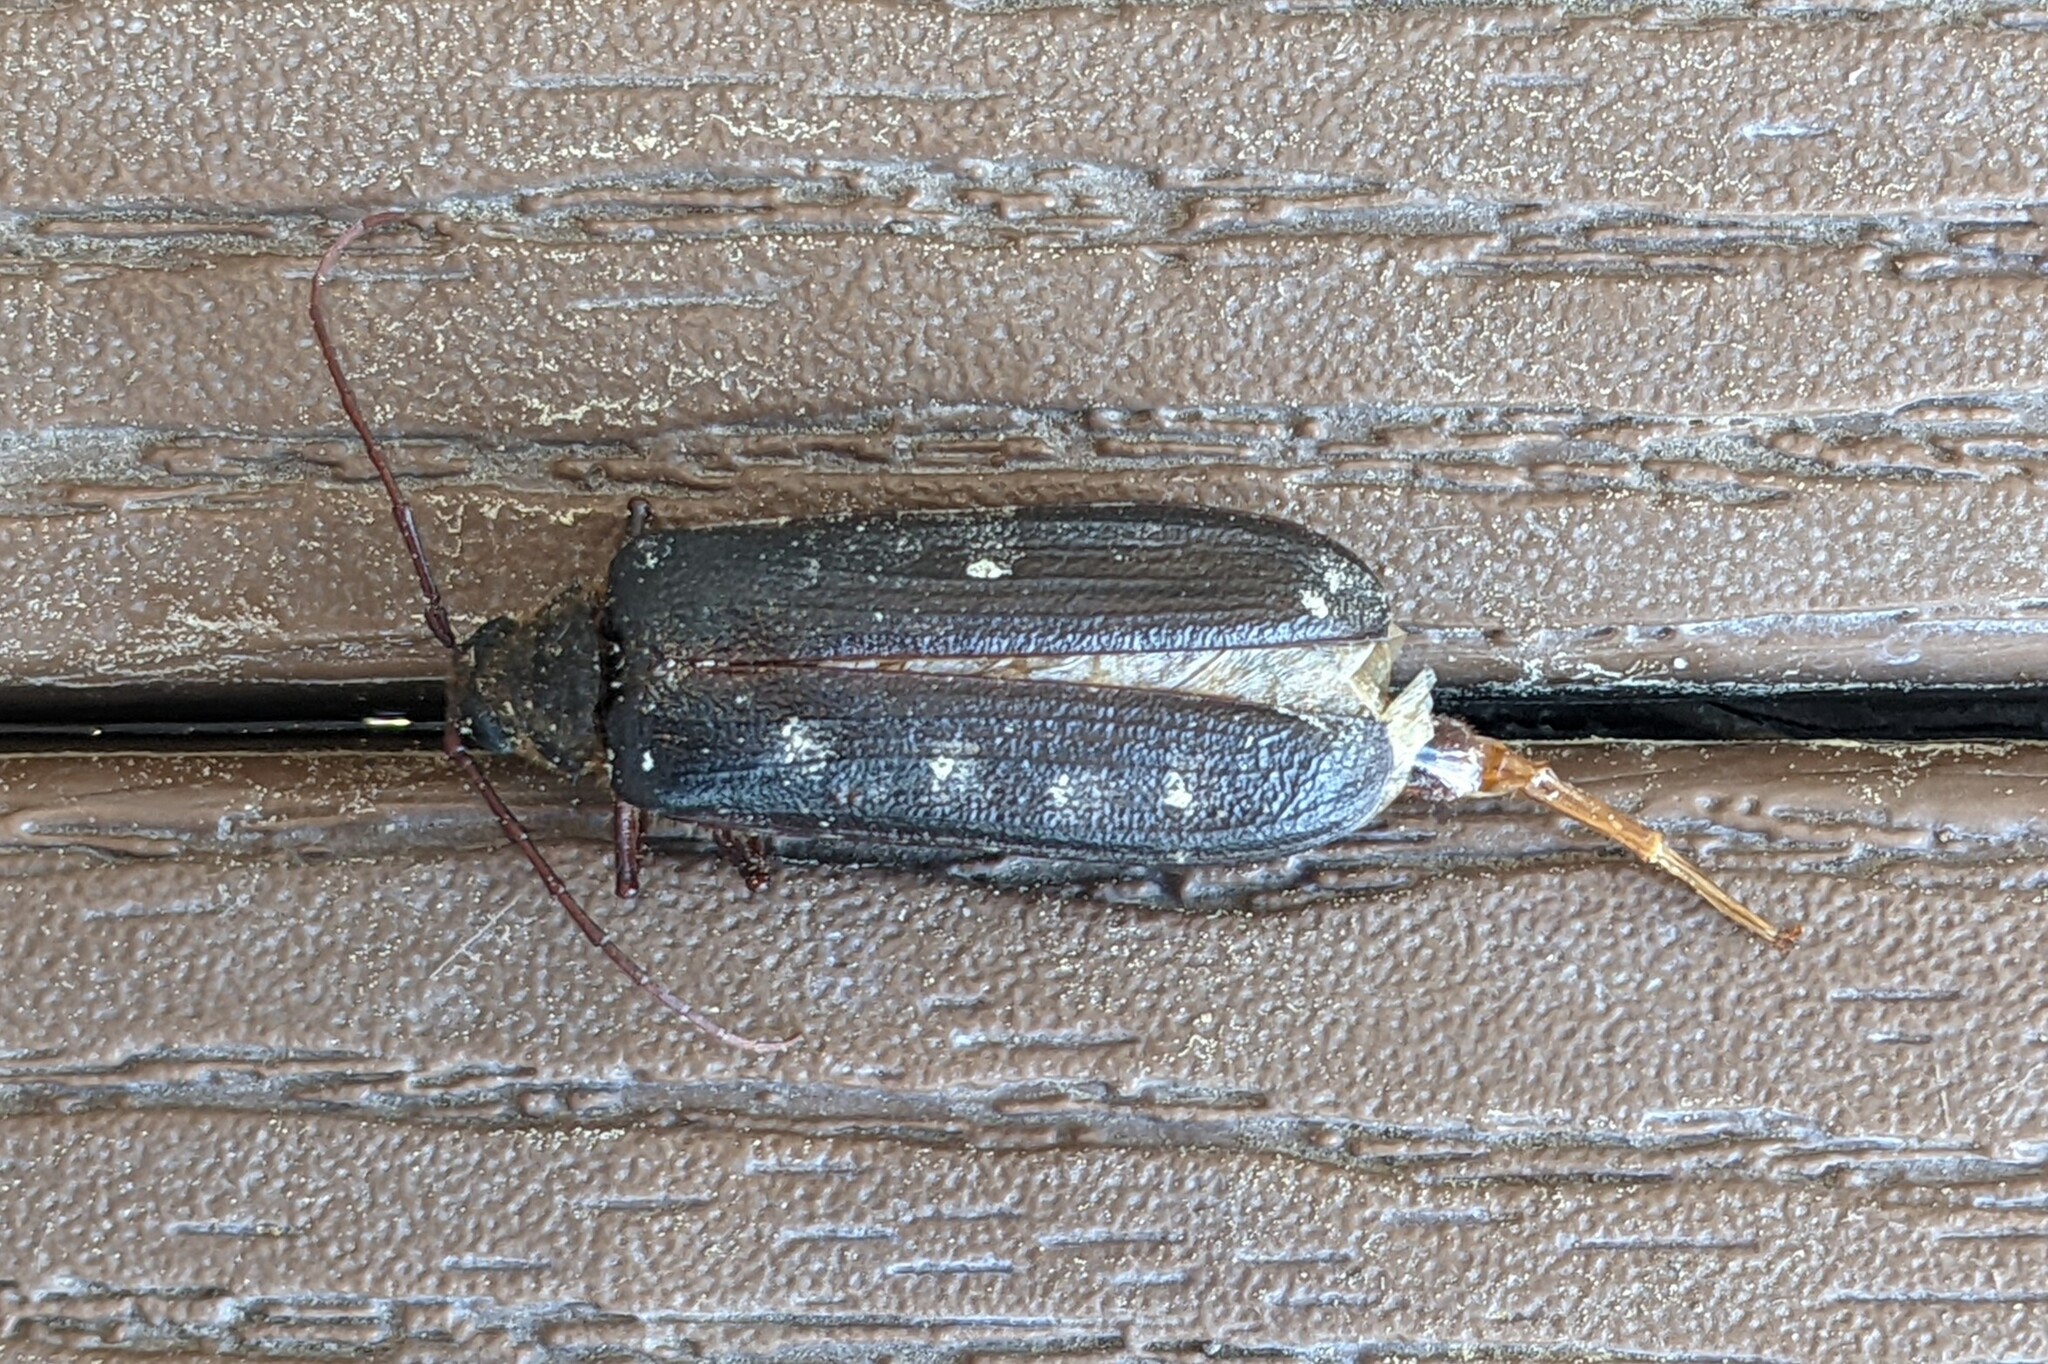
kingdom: Animalia
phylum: Arthropoda
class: Insecta
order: Coleoptera
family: Cerambycidae
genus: Tragosoma
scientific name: Tragosoma harrisii
